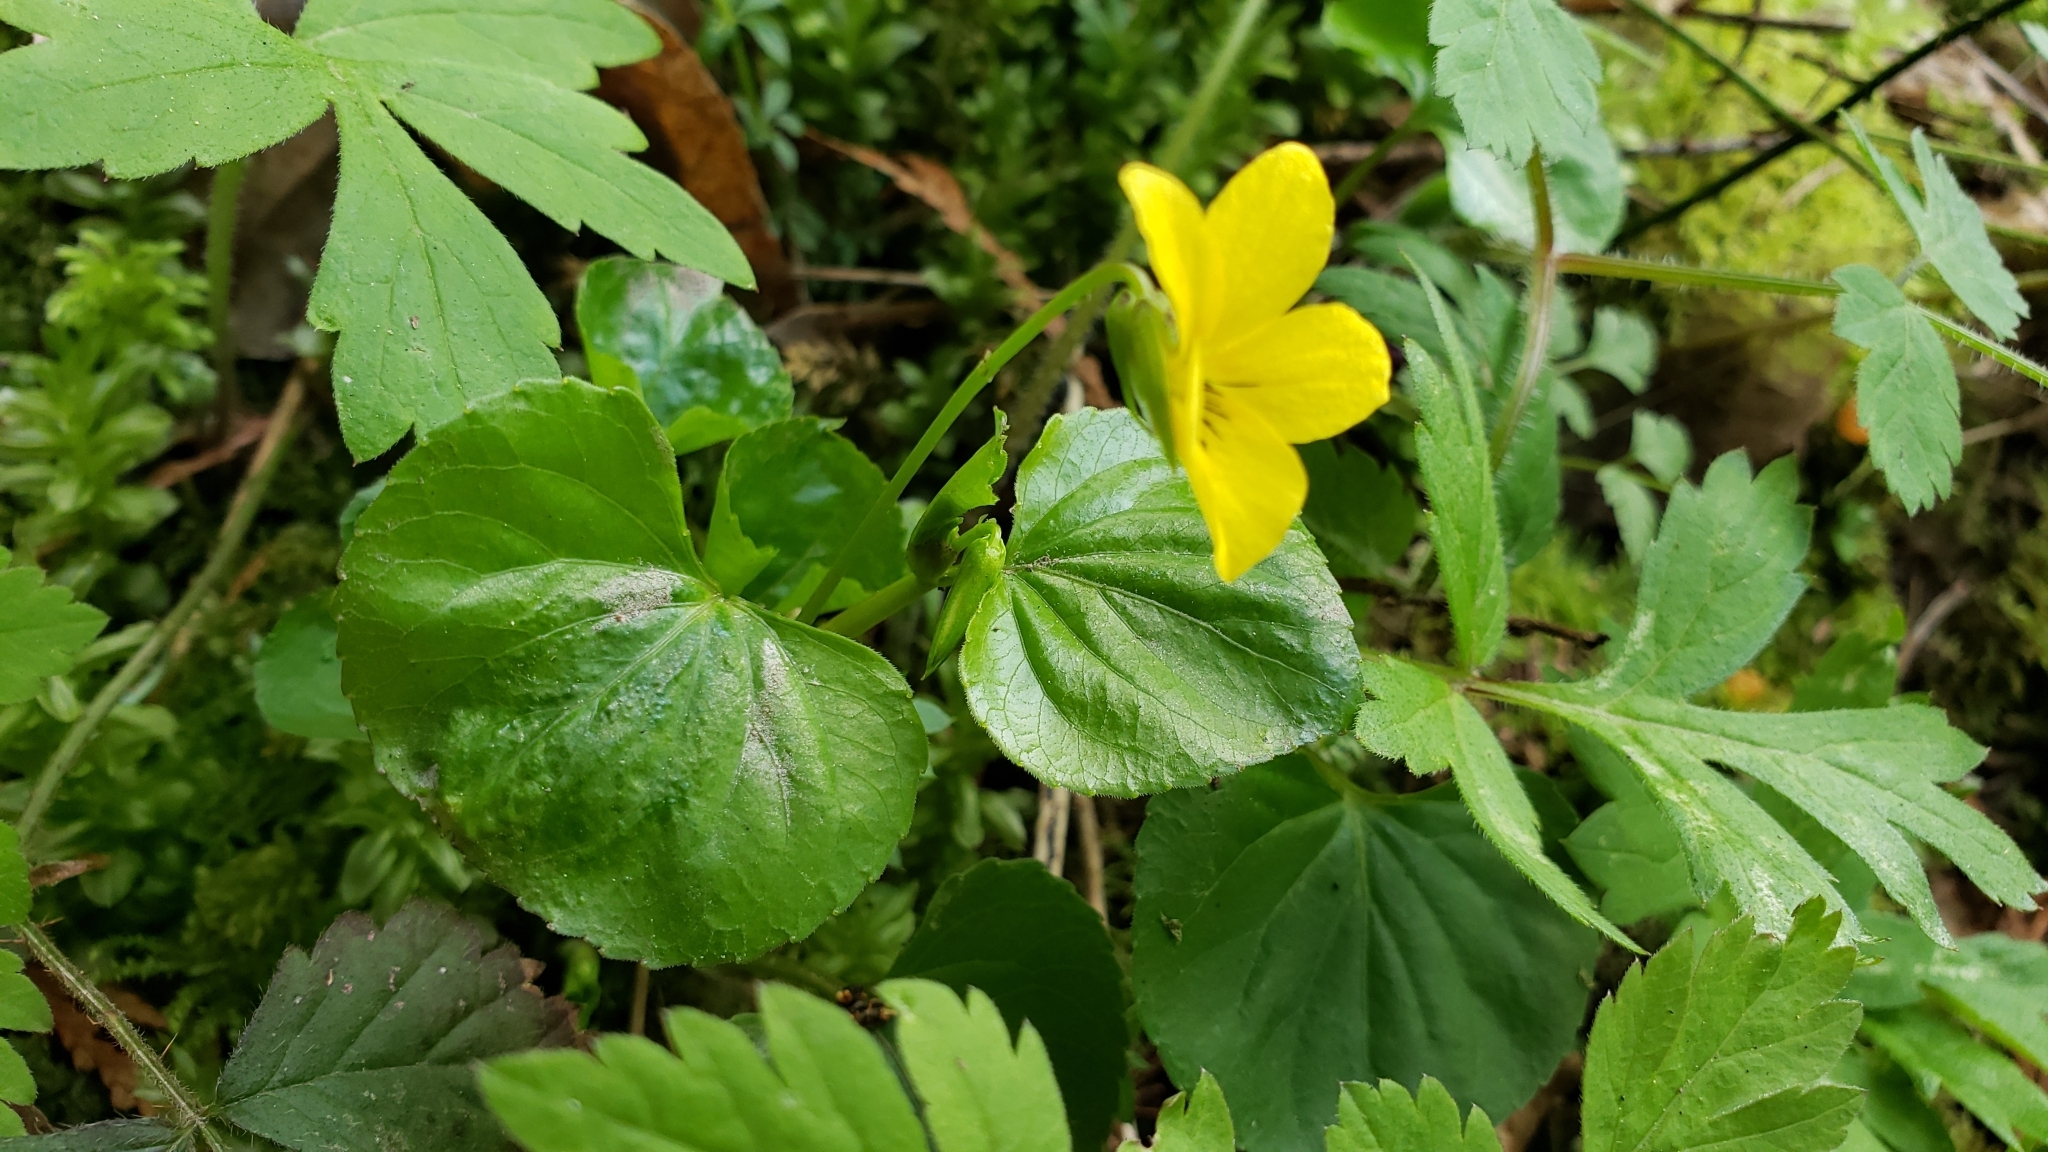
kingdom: Plantae
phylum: Tracheophyta
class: Magnoliopsida
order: Malpighiales
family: Violaceae
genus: Viola
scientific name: Viola glabella
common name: Stream violet
